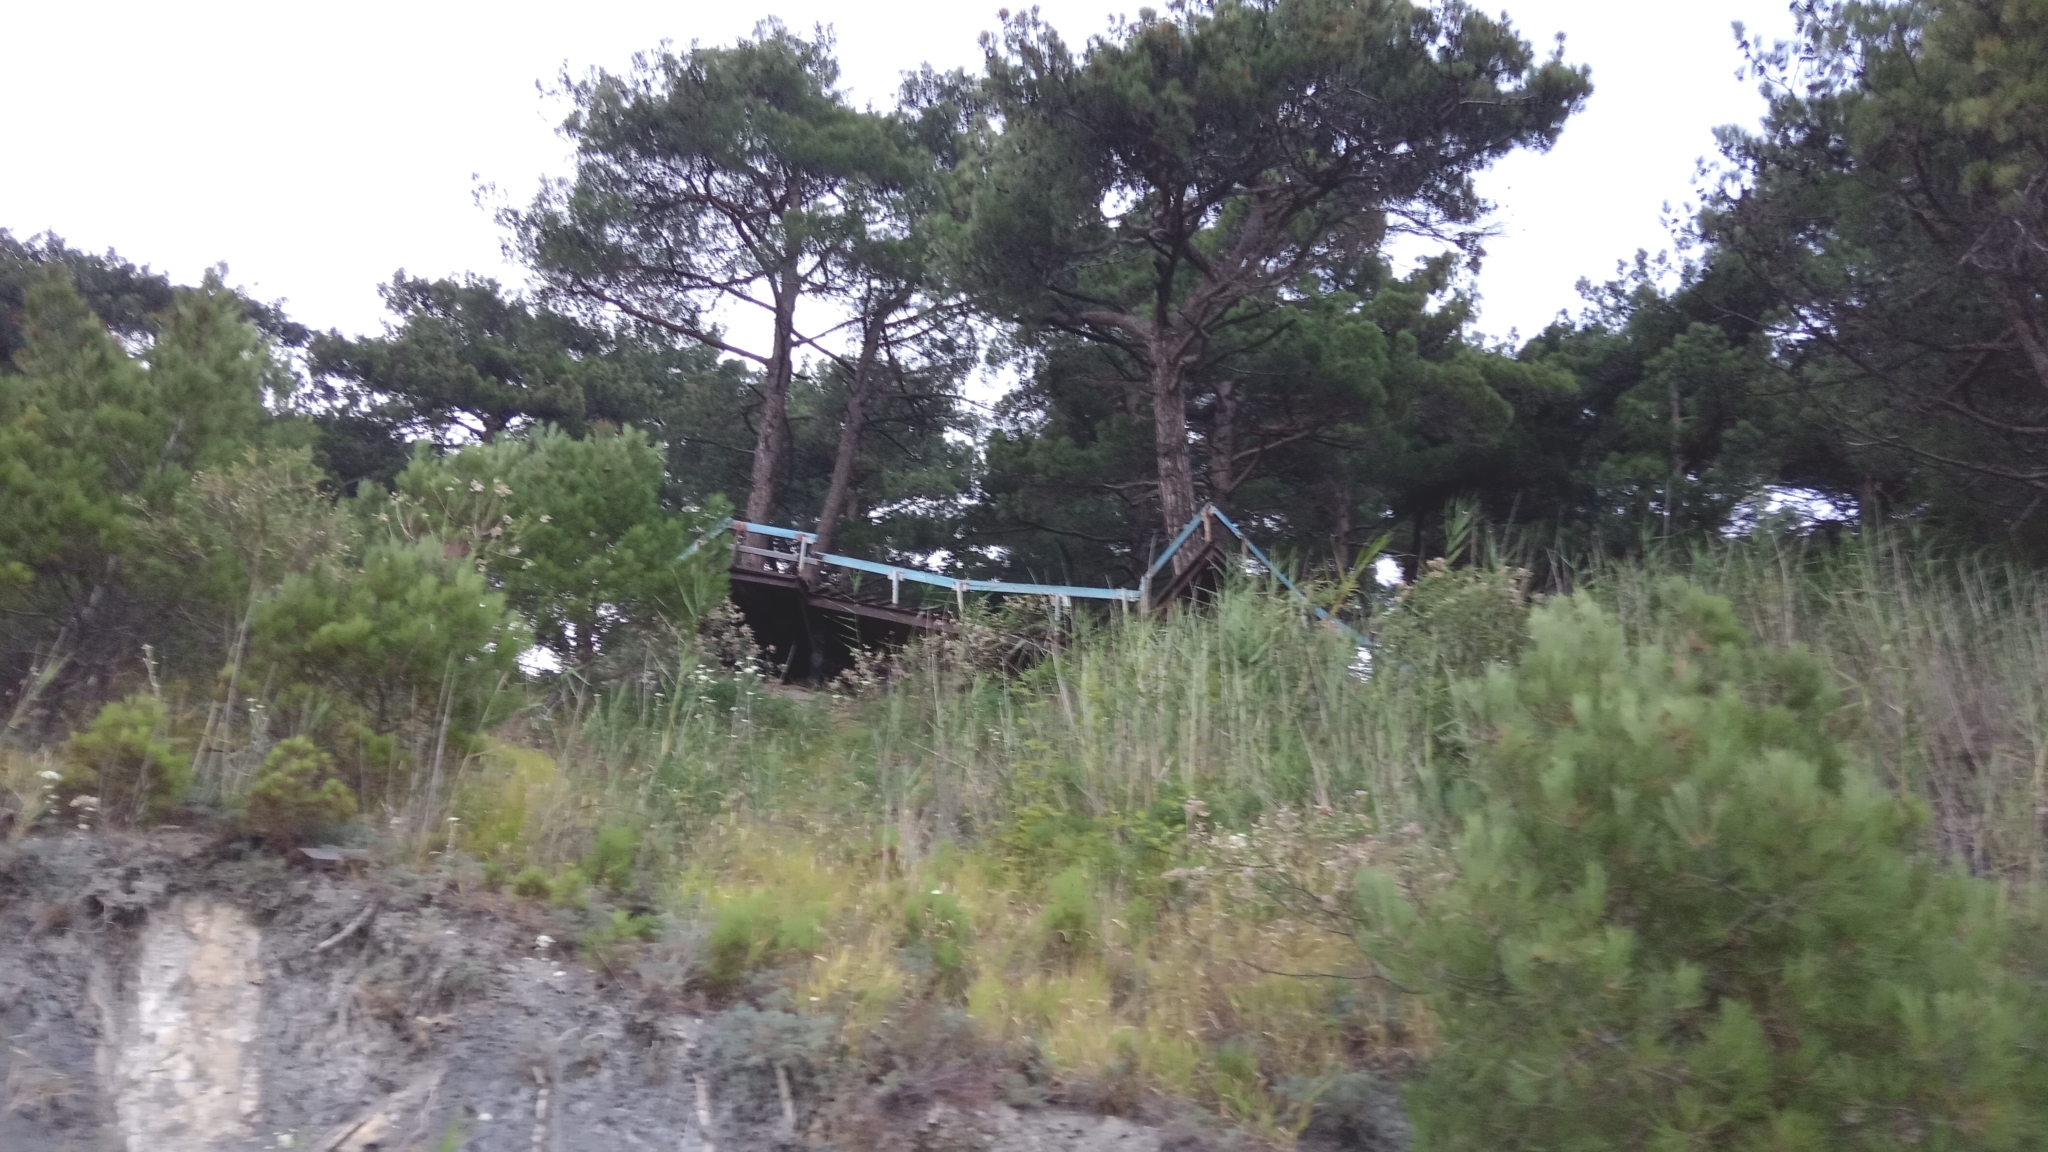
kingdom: Plantae
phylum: Tracheophyta
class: Pinopsida
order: Pinales
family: Pinaceae
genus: Pinus
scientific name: Pinus brutia
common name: Turkish pine
